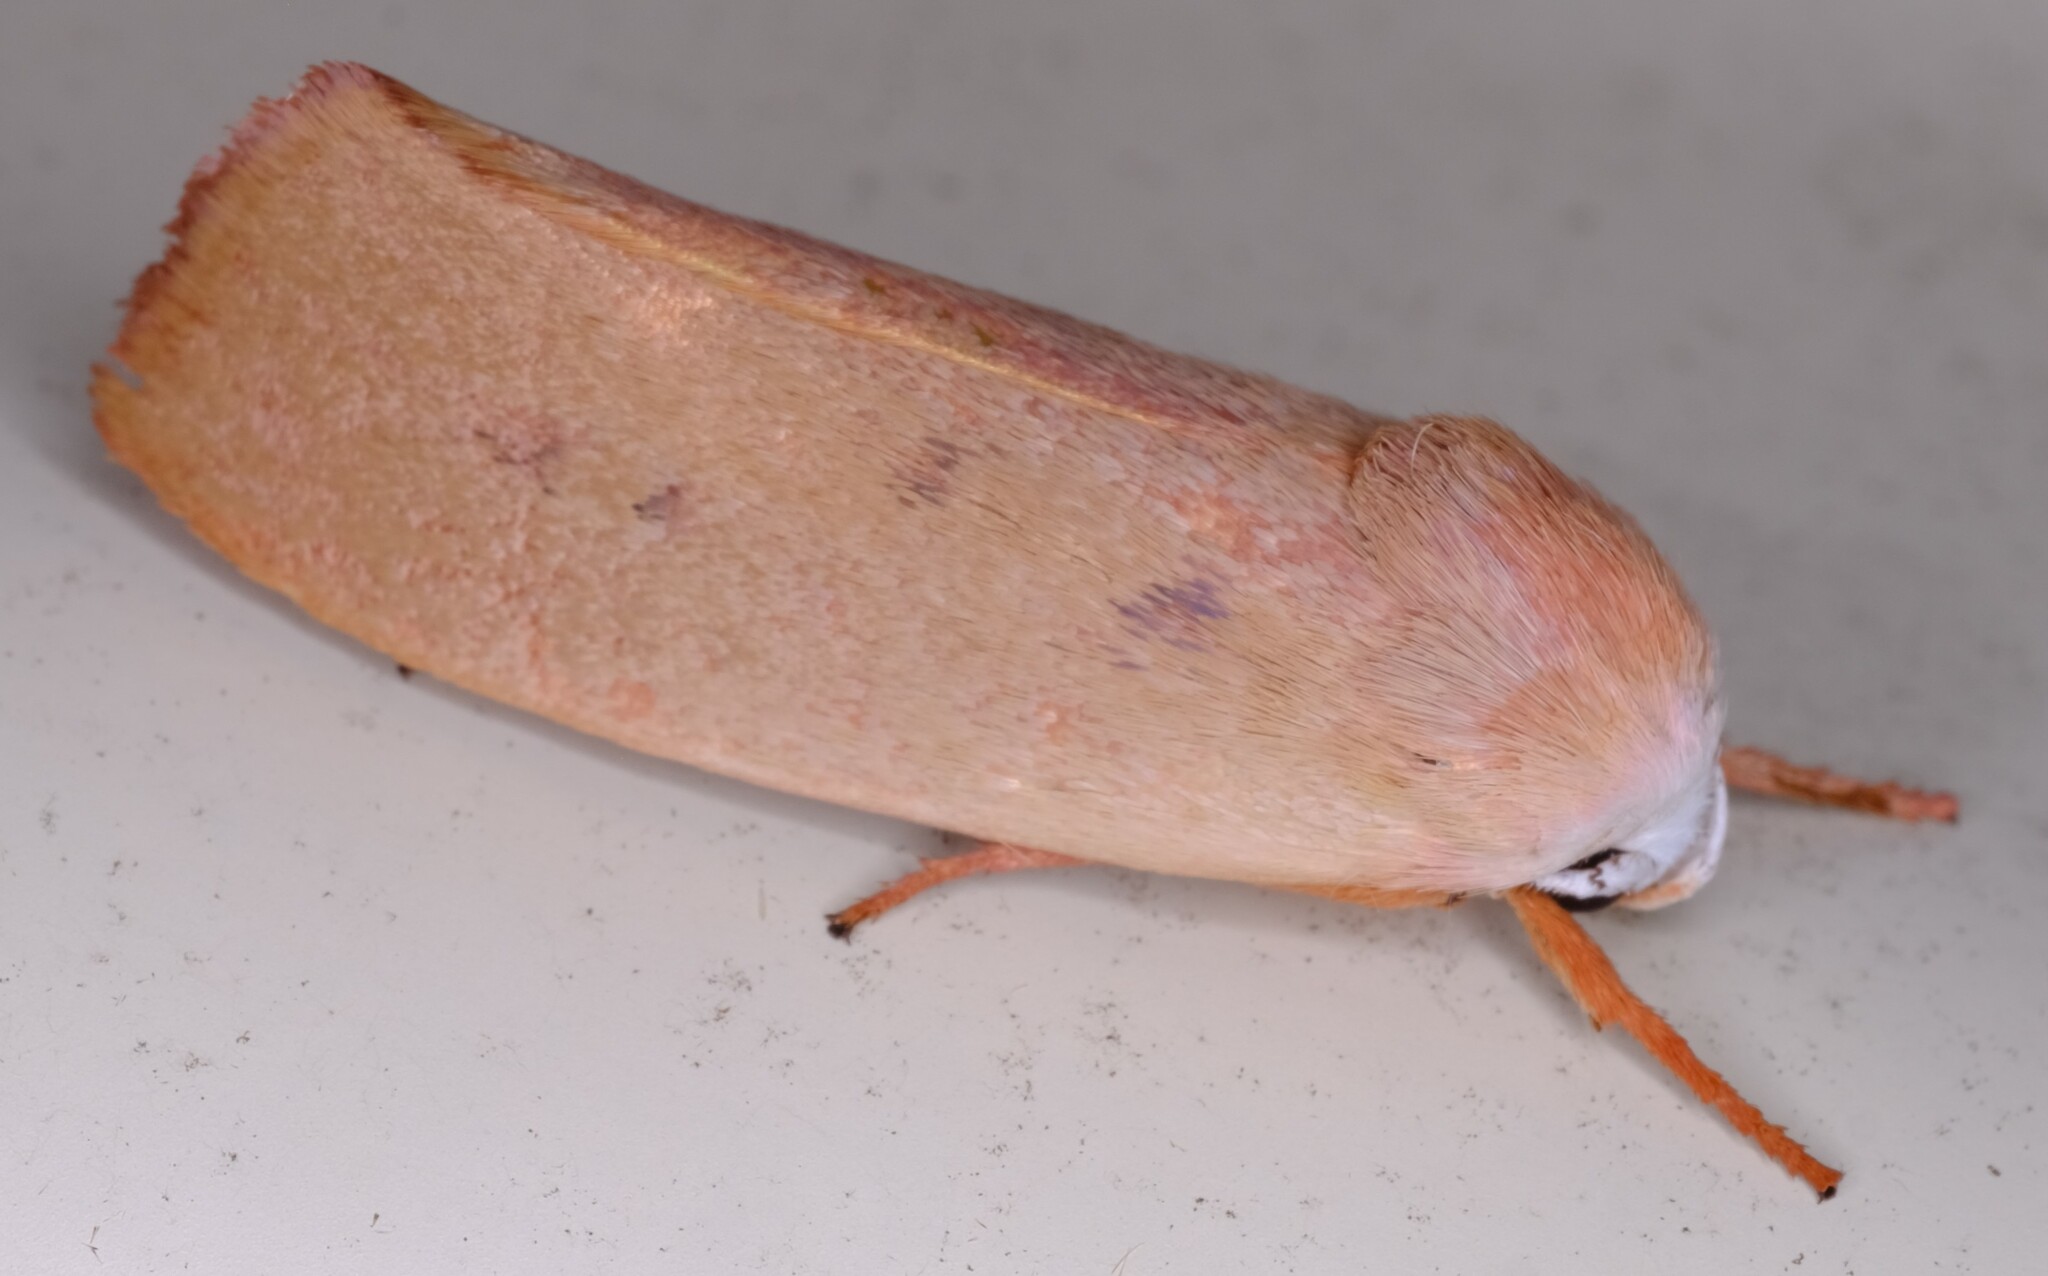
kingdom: Animalia
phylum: Arthropoda
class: Insecta
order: Lepidoptera
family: Xyloryctidae
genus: Cryptophasa
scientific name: Cryptophasa rubescens
